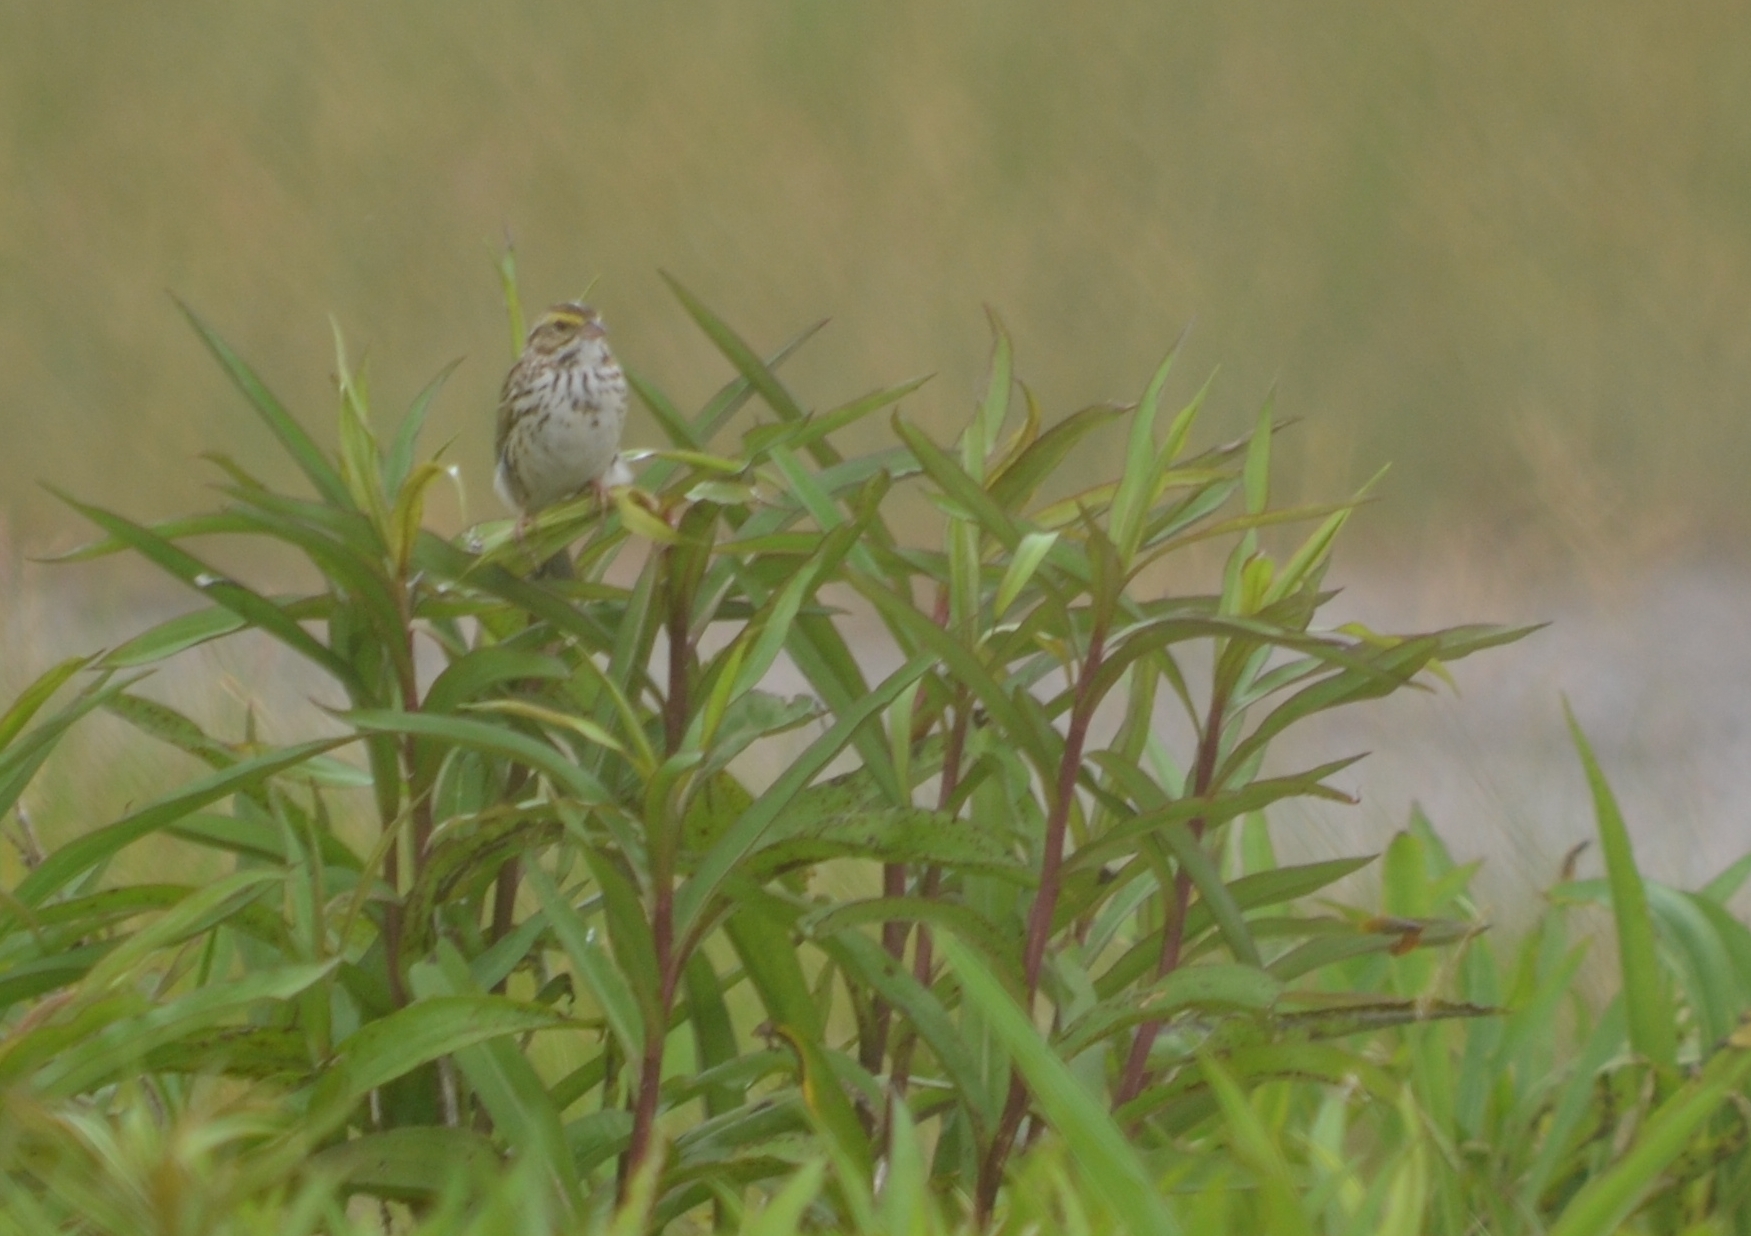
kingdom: Animalia
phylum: Chordata
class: Aves
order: Passeriformes
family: Passerellidae
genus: Passerculus
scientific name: Passerculus sandwichensis
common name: Savannah sparrow
